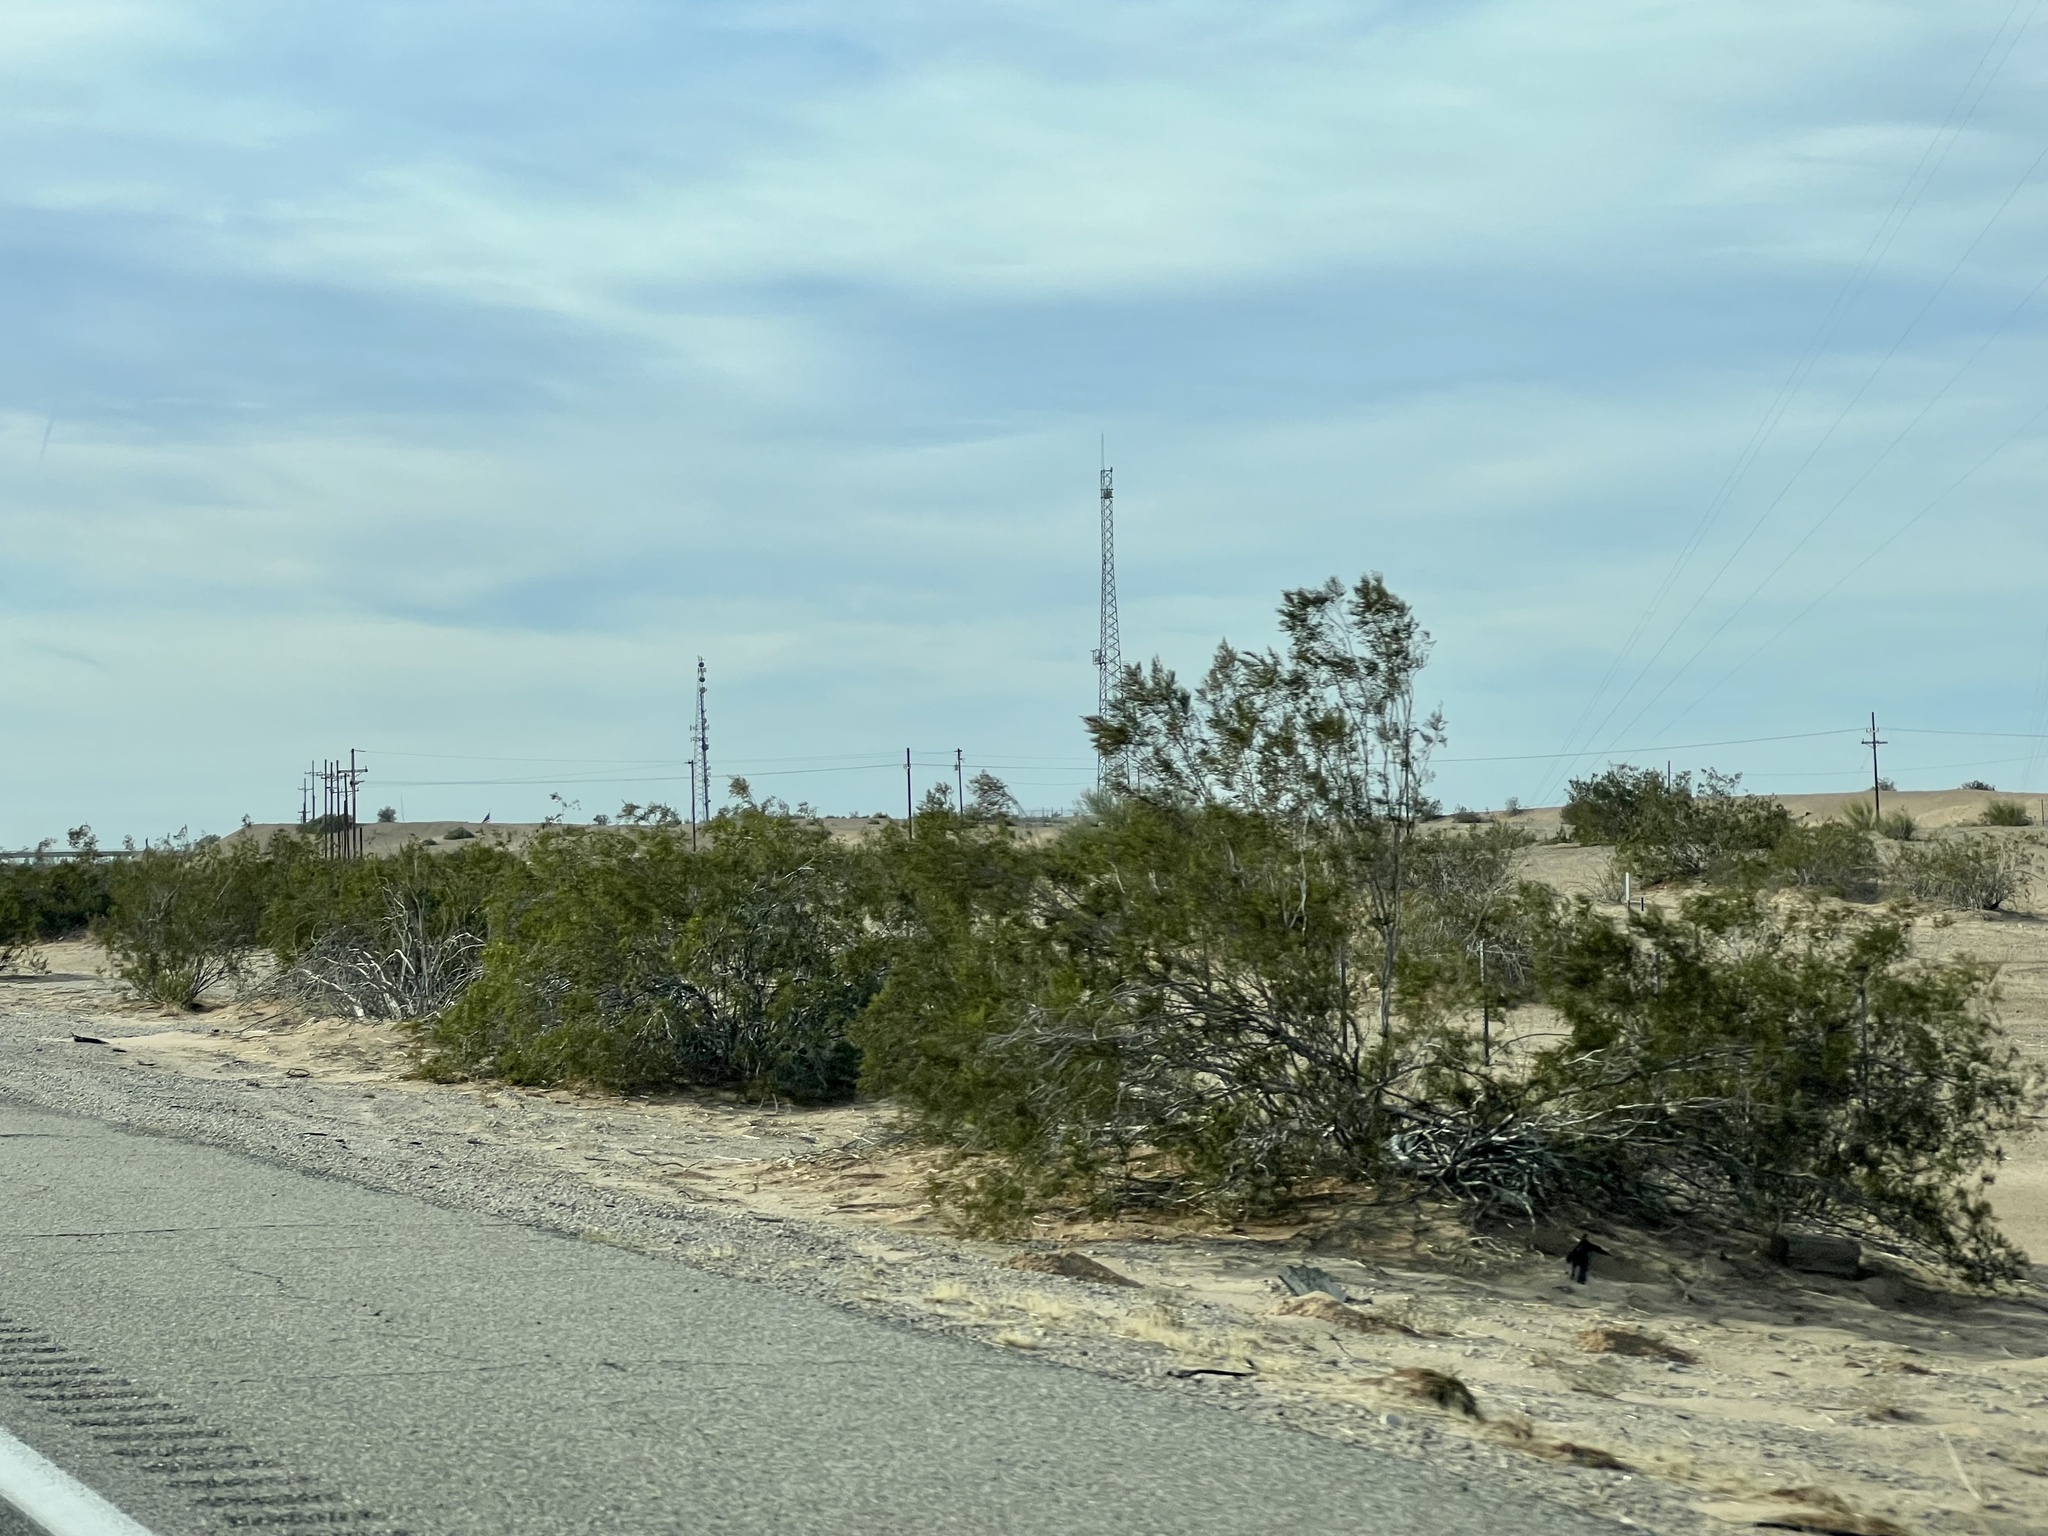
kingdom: Plantae
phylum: Tracheophyta
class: Magnoliopsida
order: Zygophyllales
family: Zygophyllaceae
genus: Larrea
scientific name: Larrea tridentata
